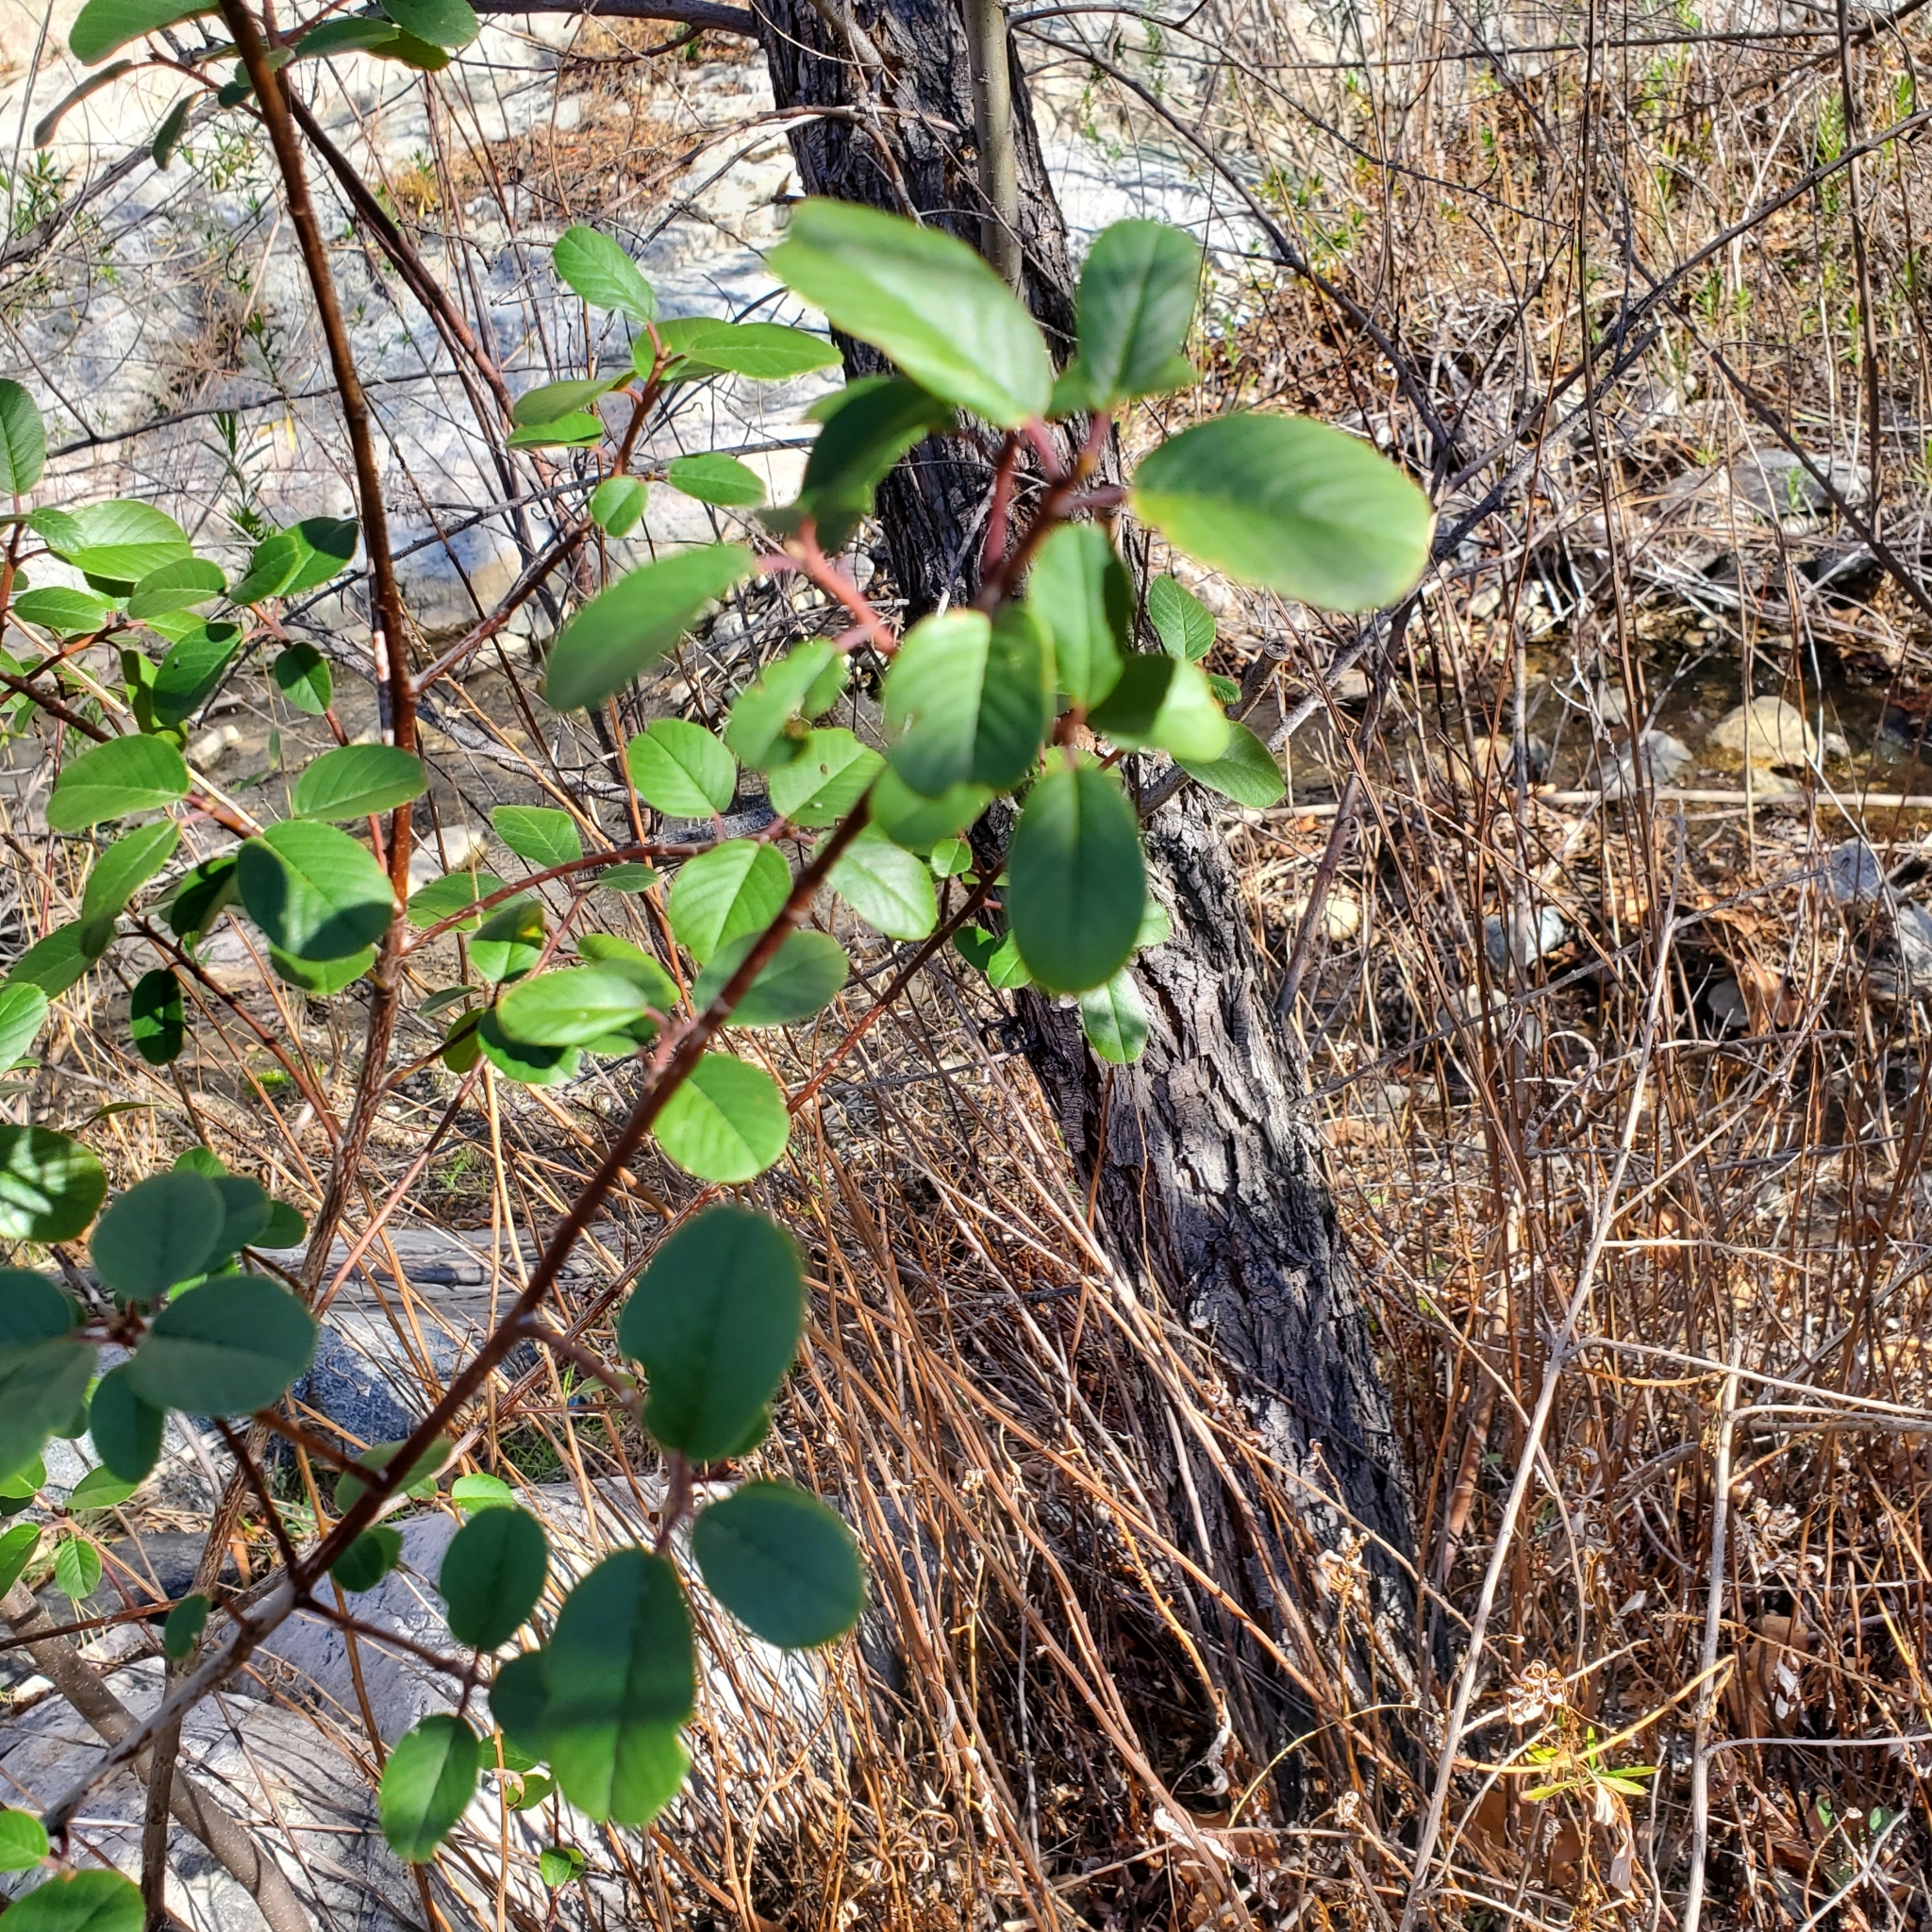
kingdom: Plantae
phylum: Tracheophyta
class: Magnoliopsida
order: Rosales
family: Rhamnaceae
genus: Frangula
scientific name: Frangula californica
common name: California buckthorn
